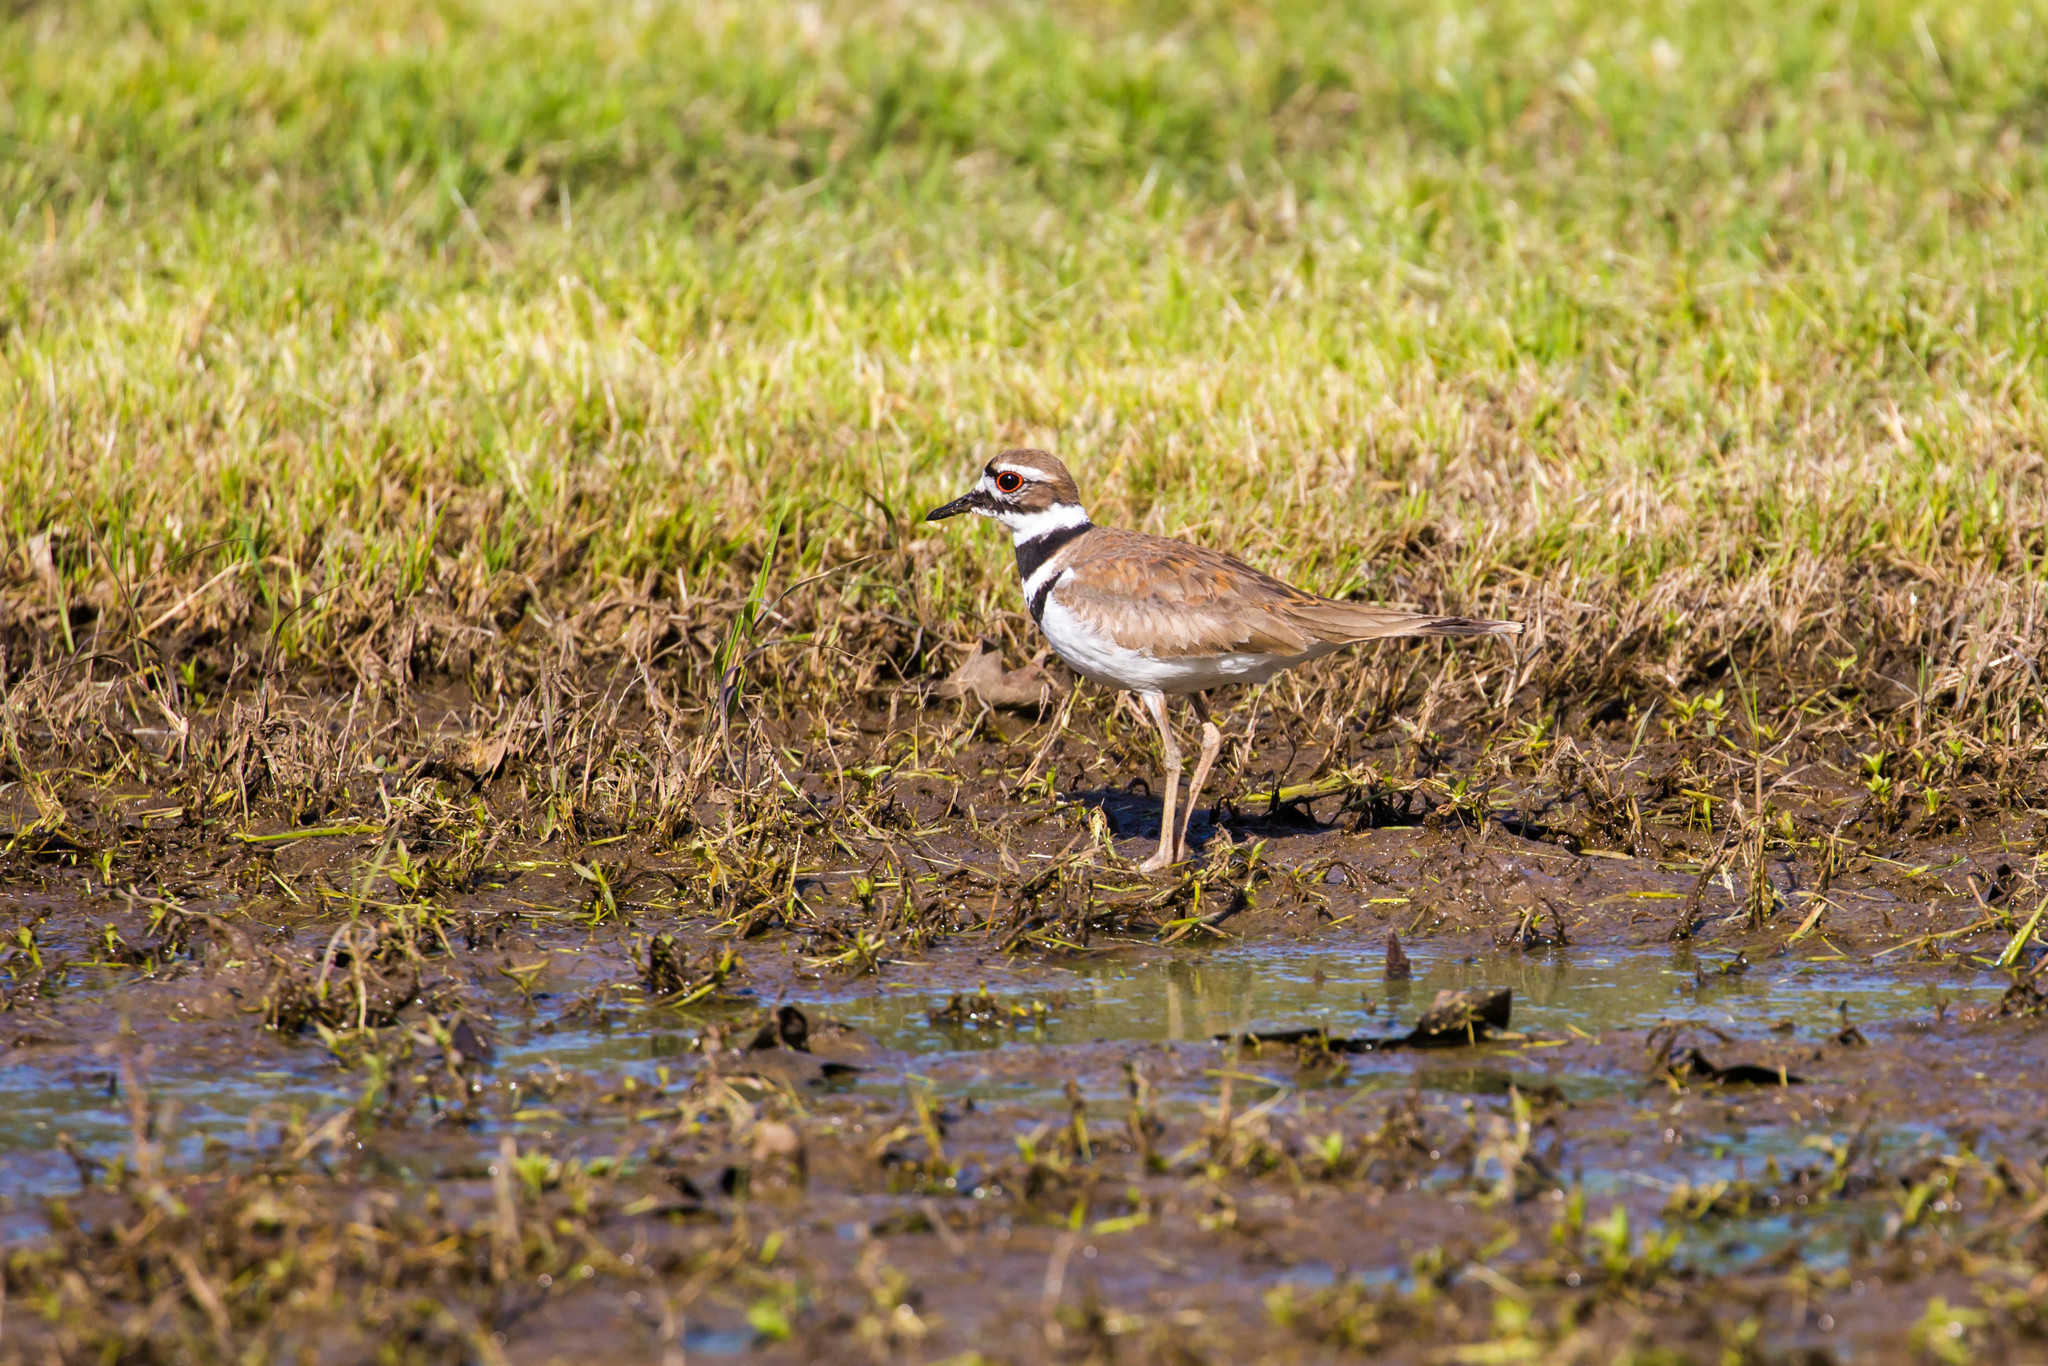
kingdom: Animalia
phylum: Chordata
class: Aves
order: Charadriiformes
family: Charadriidae
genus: Charadrius
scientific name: Charadrius vociferus
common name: Killdeer
